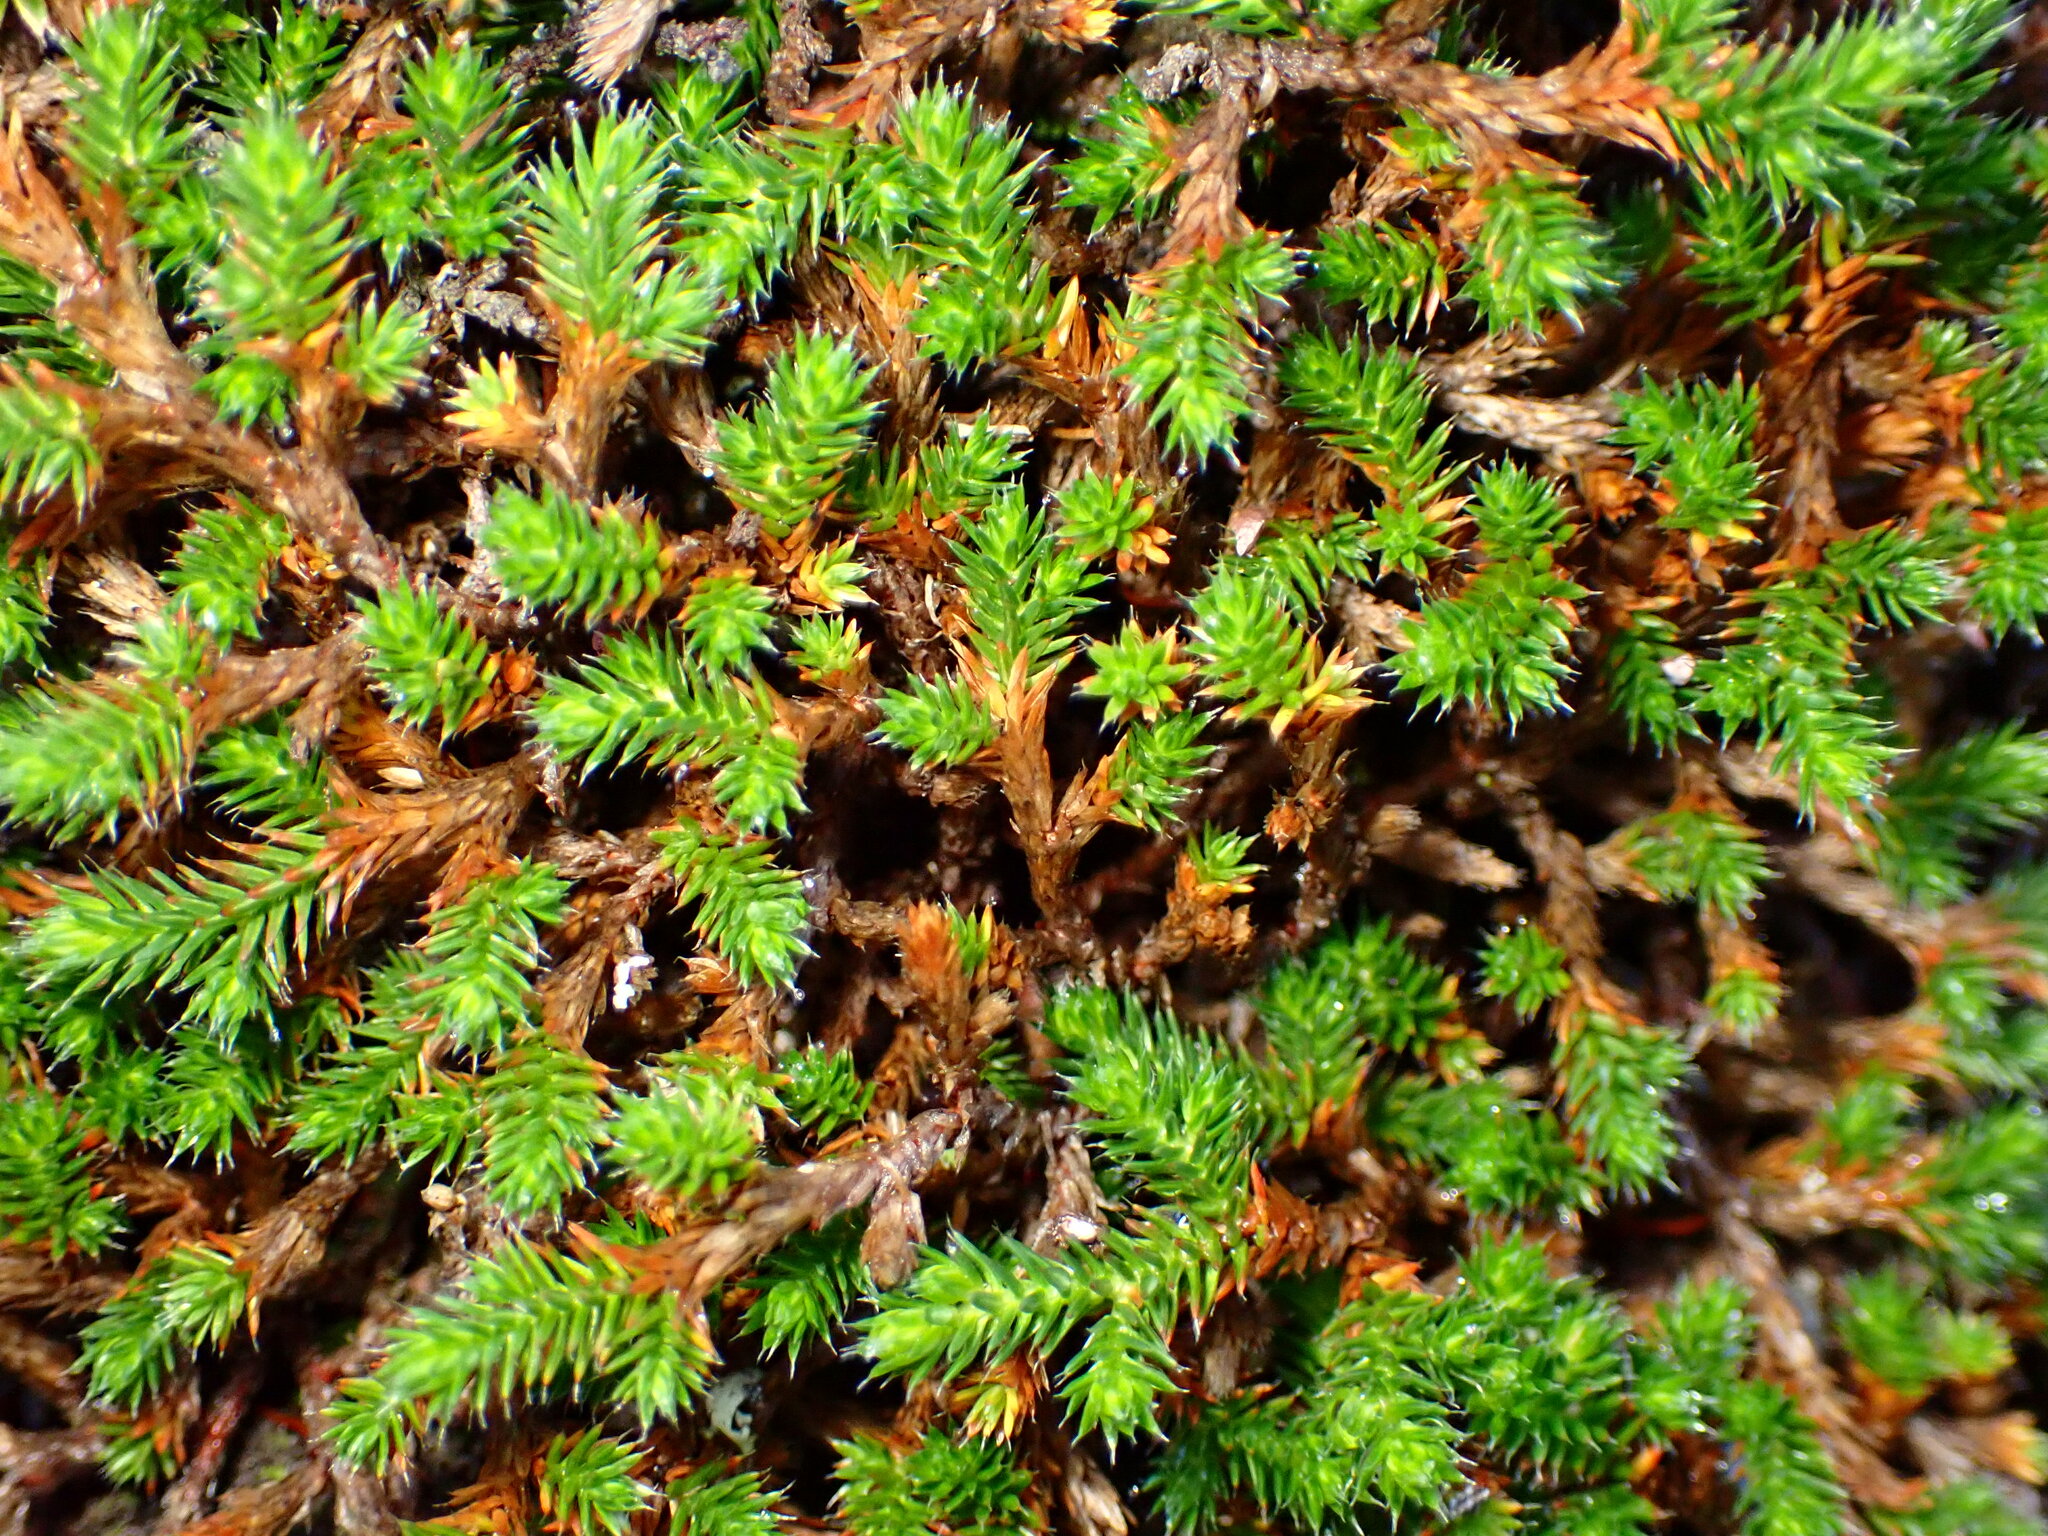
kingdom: Plantae
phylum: Tracheophyta
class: Lycopodiopsida
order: Selaginellales
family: Selaginellaceae
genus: Selaginella
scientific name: Selaginella wallacei
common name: Wallace's selaginella
